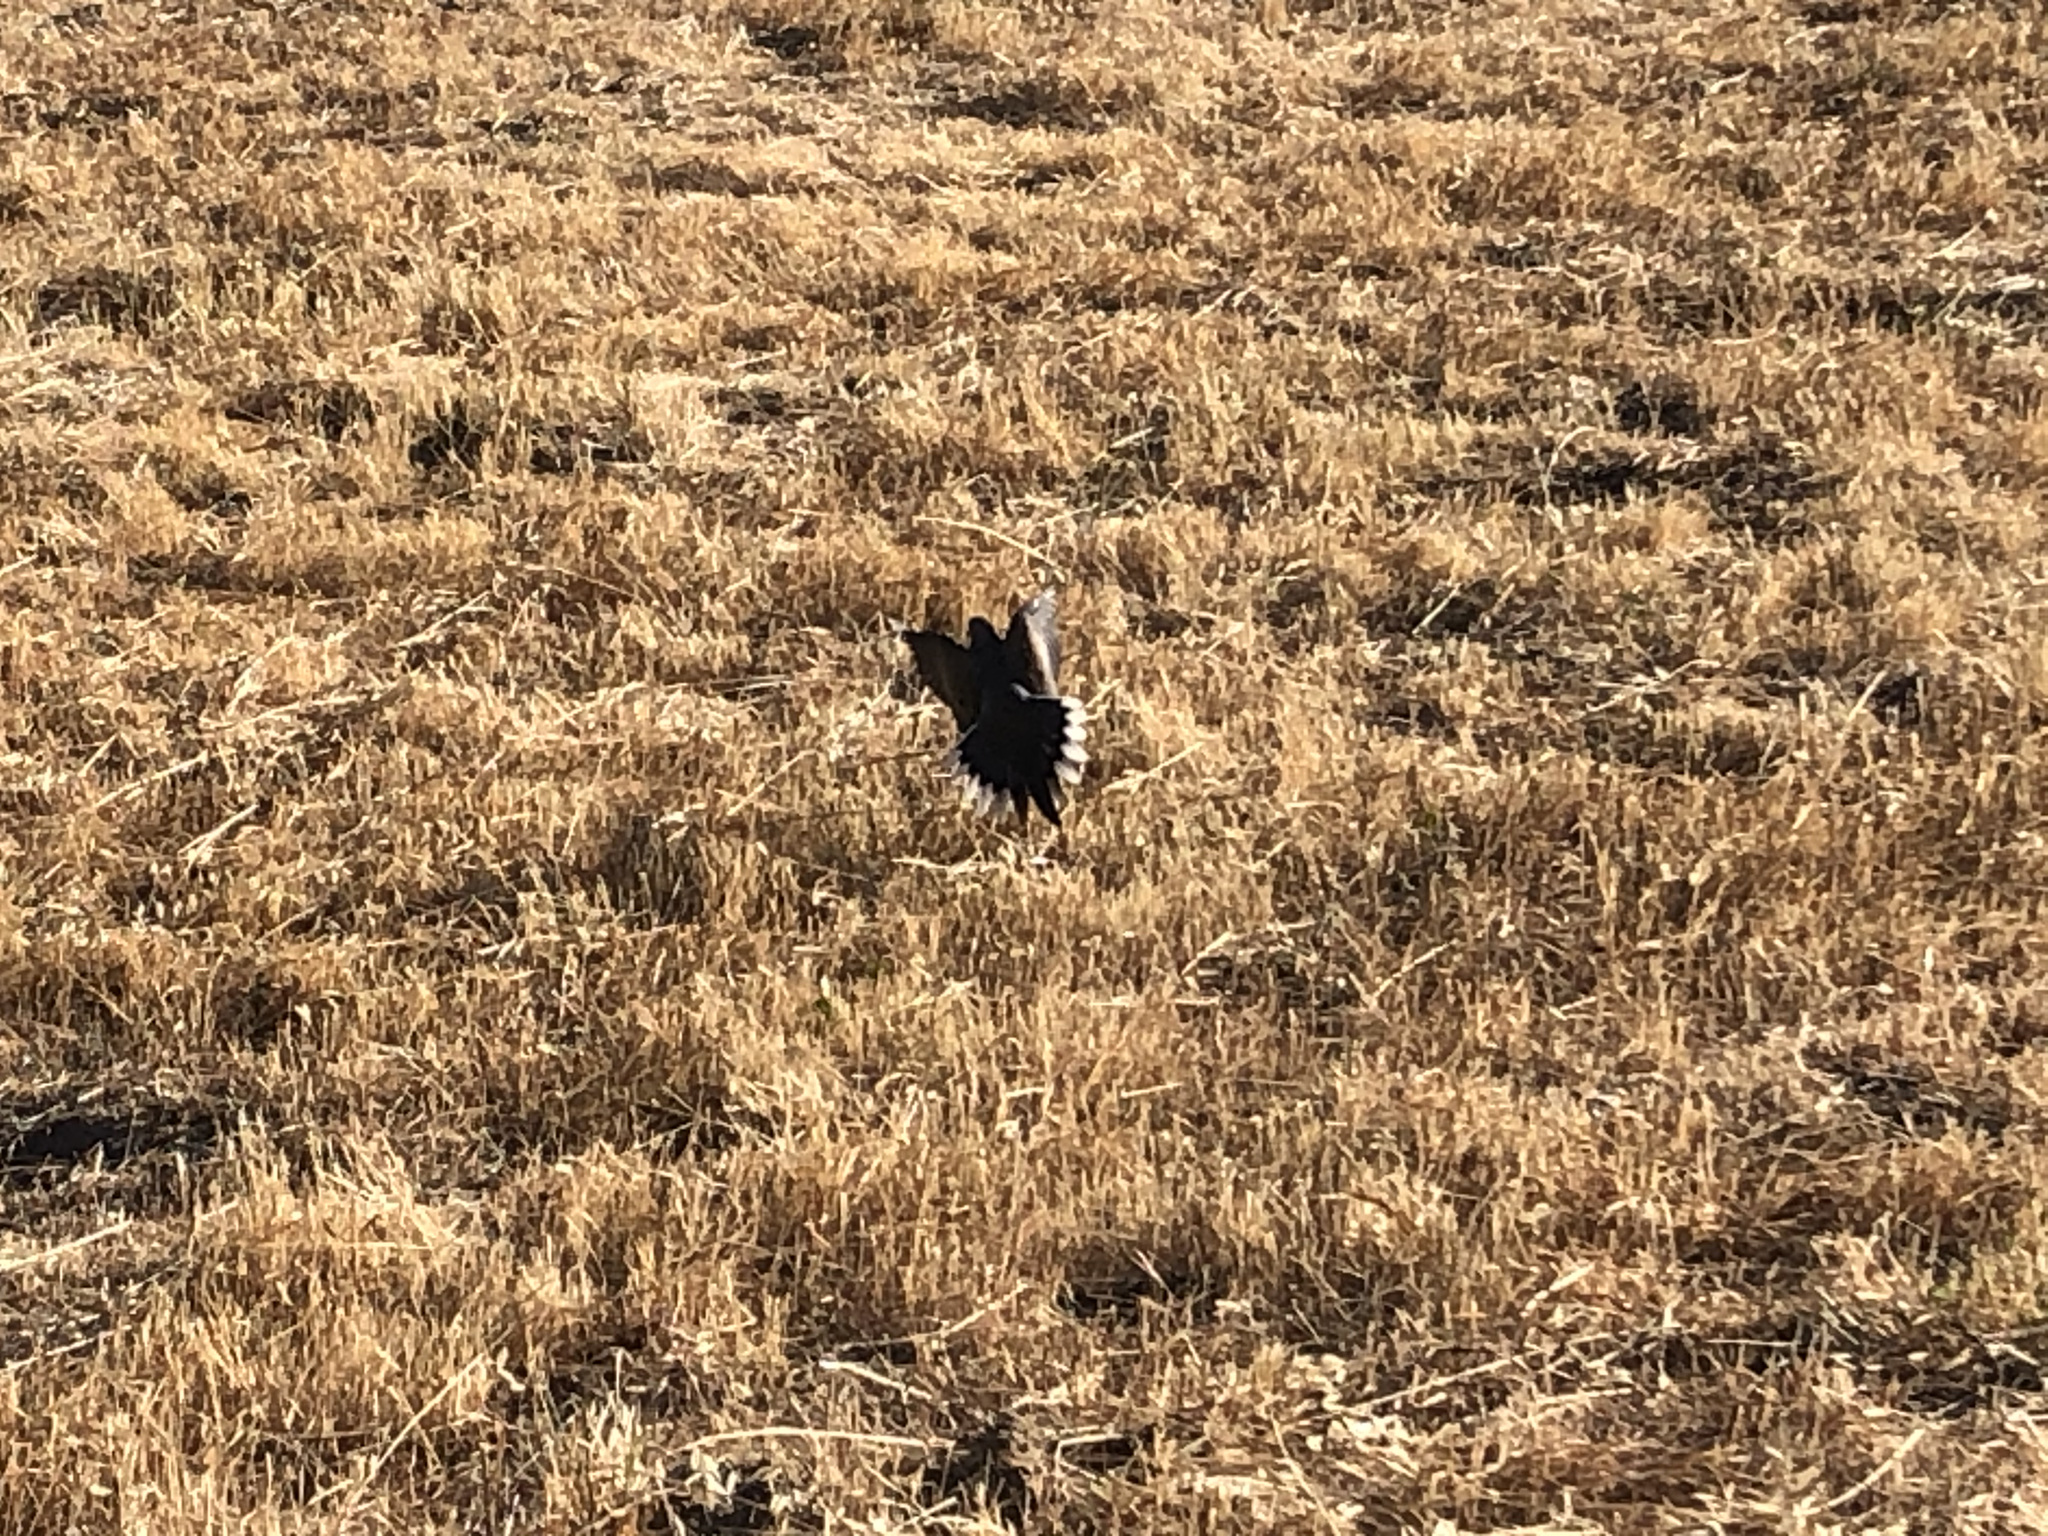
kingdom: Animalia
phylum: Chordata
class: Aves
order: Columbiformes
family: Columbidae
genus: Zenaida
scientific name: Zenaida macroura
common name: Mourning dove
